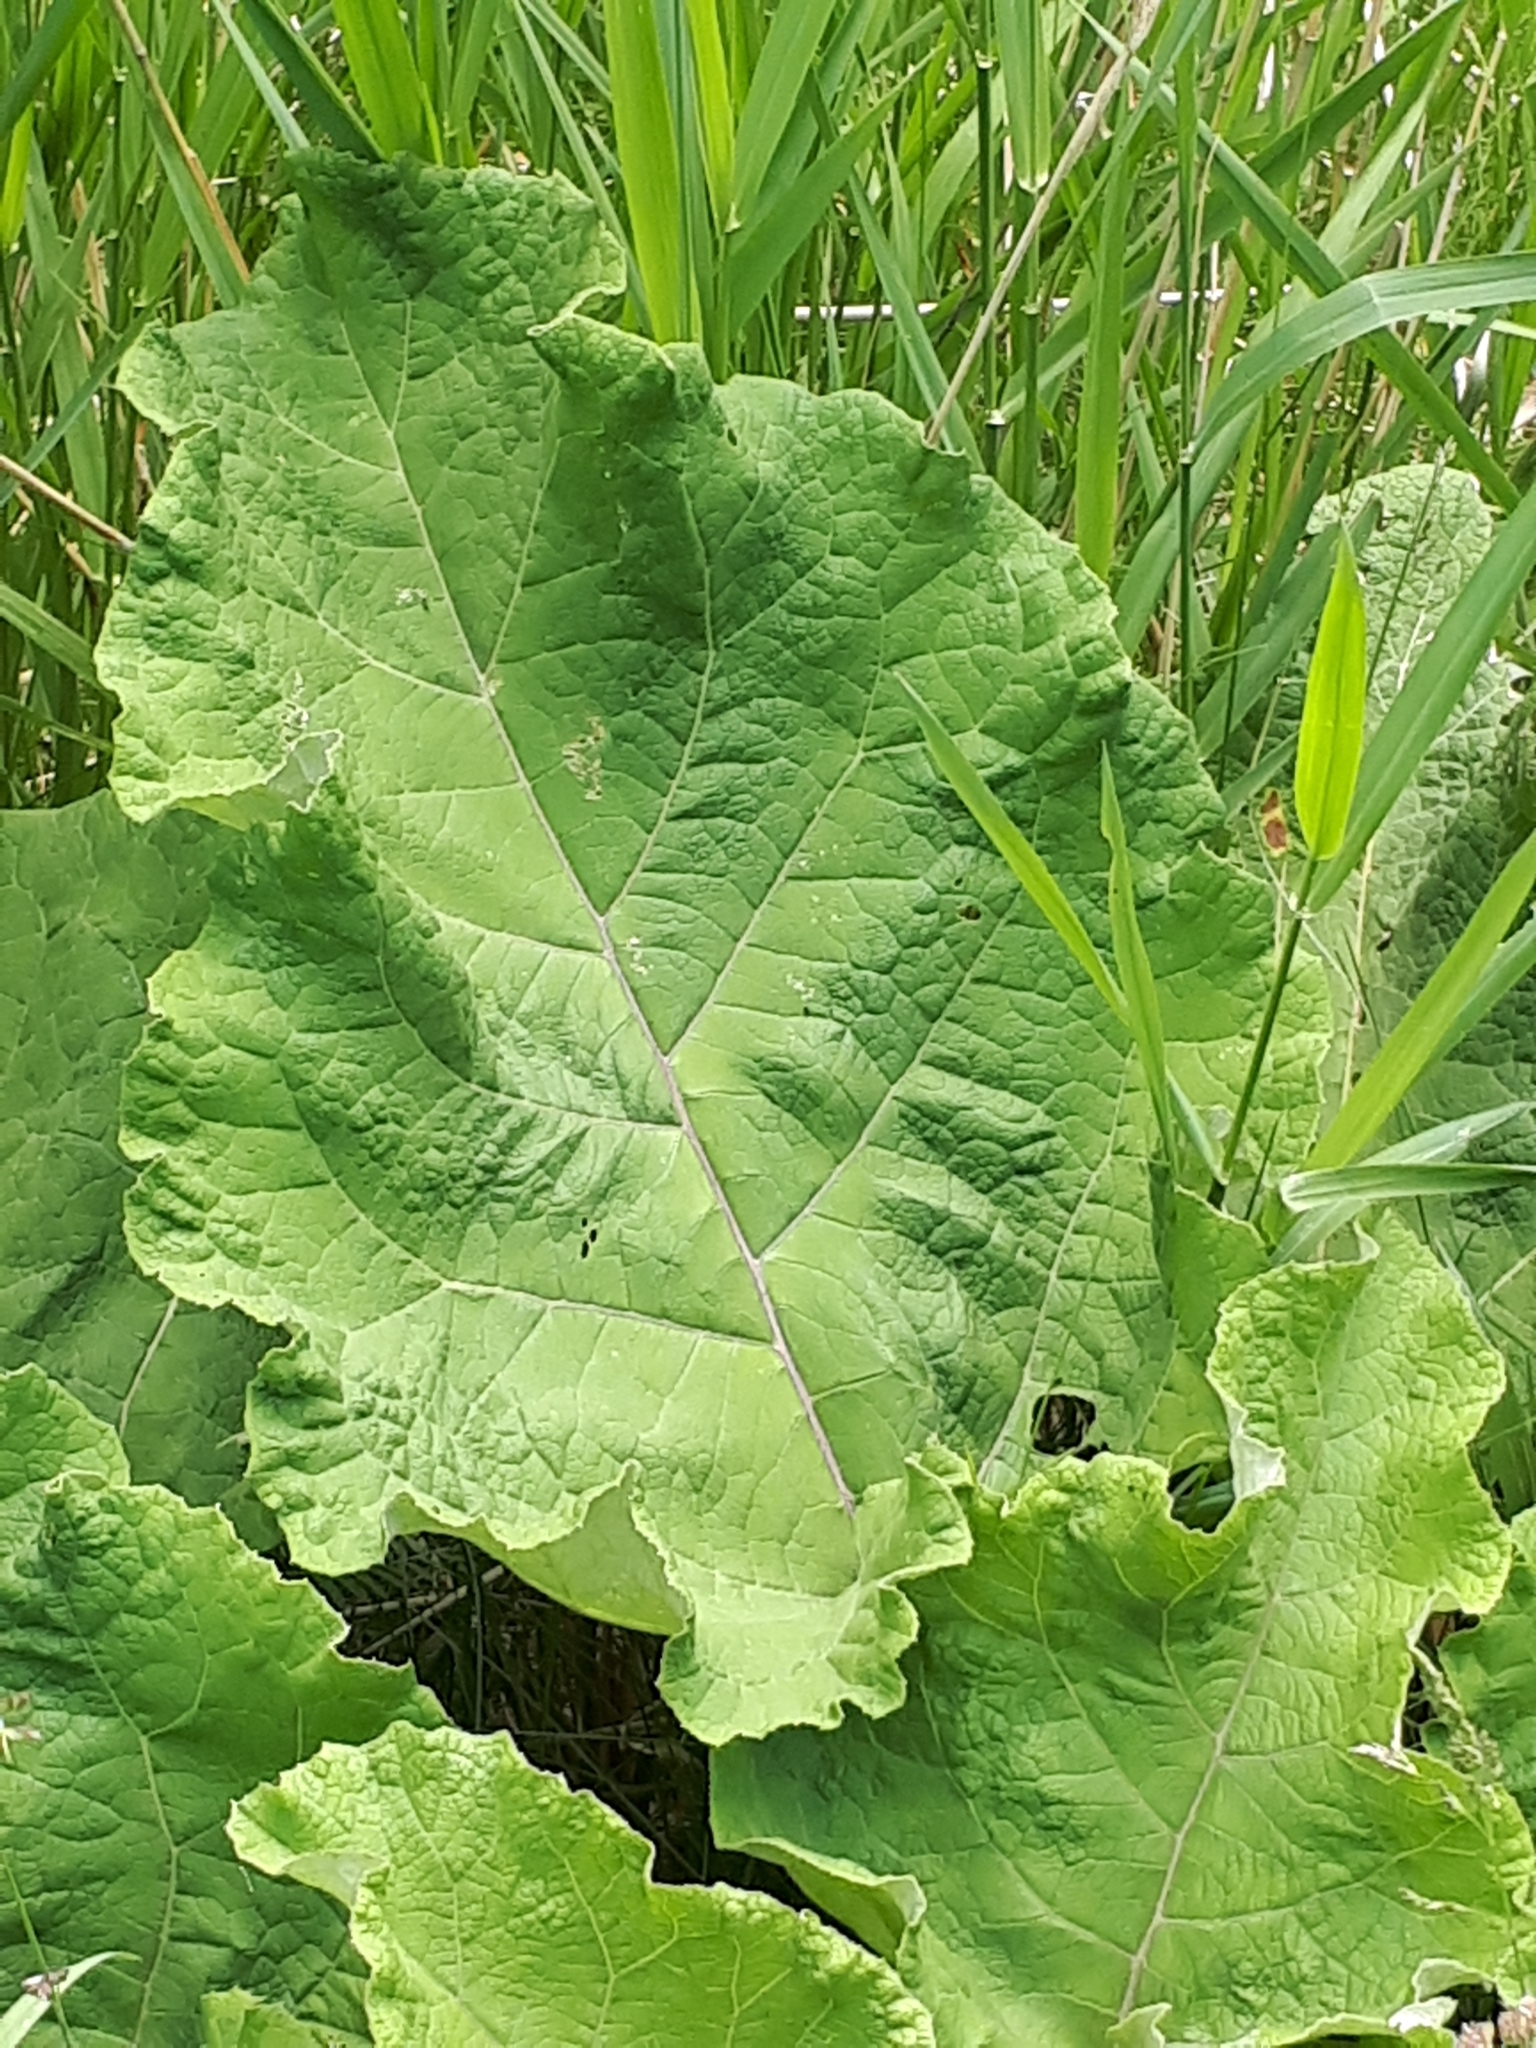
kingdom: Plantae
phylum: Tracheophyta
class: Magnoliopsida
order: Asterales
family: Asteraceae
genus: Arctium
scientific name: Arctium lappa
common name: Greater burdock
